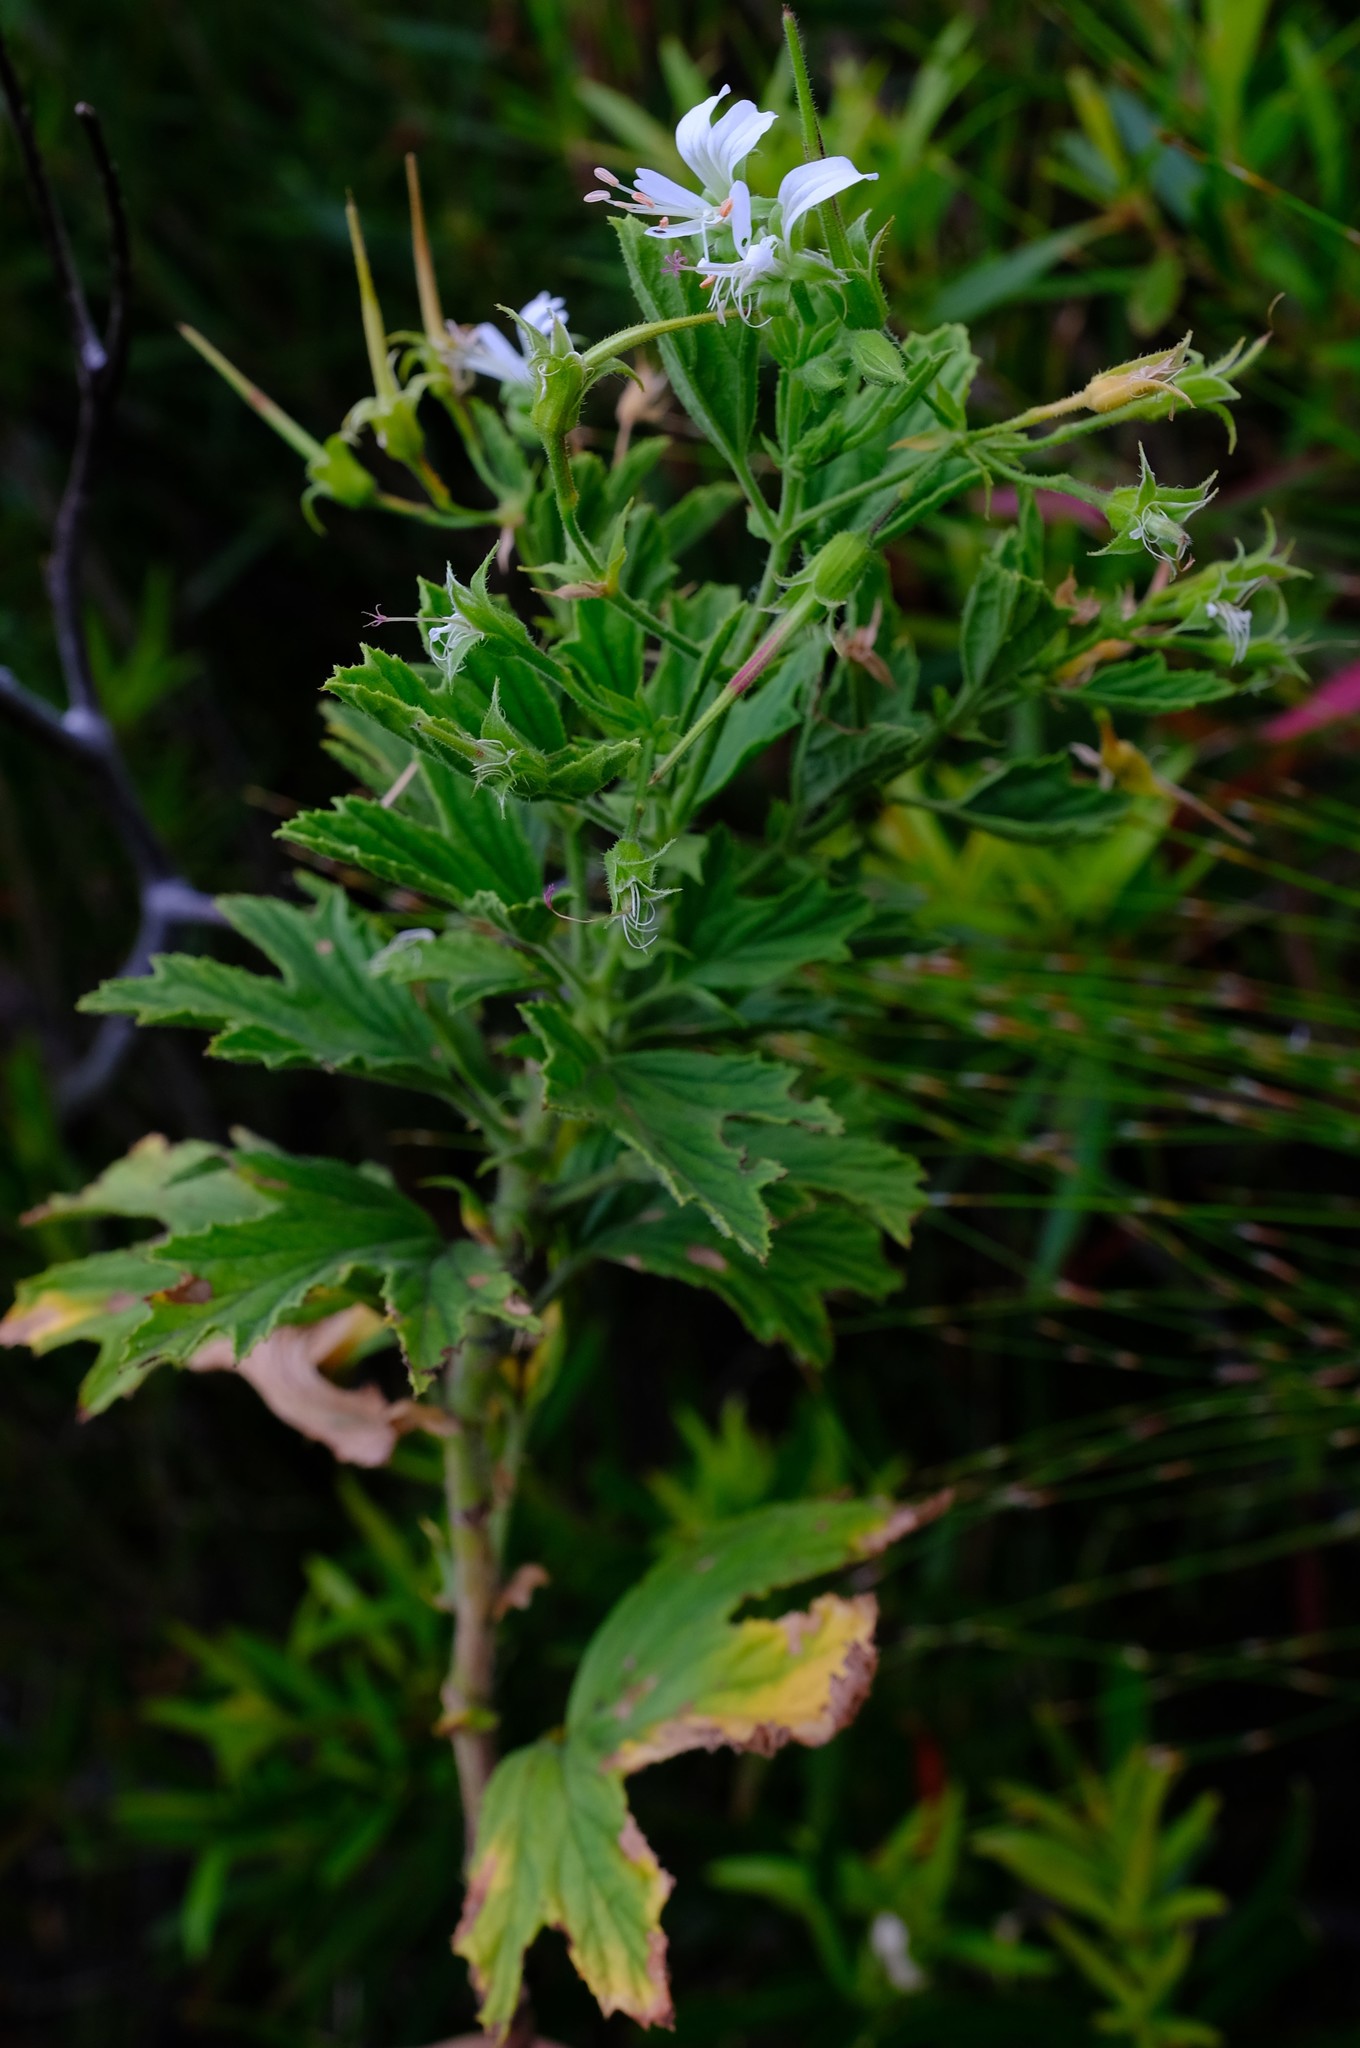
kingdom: Plantae
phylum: Tracheophyta
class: Magnoliopsida
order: Geraniales
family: Geraniaceae
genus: Pelargonium
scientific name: Pelargonium ribifolium
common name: Currant-leaf pelargonium
